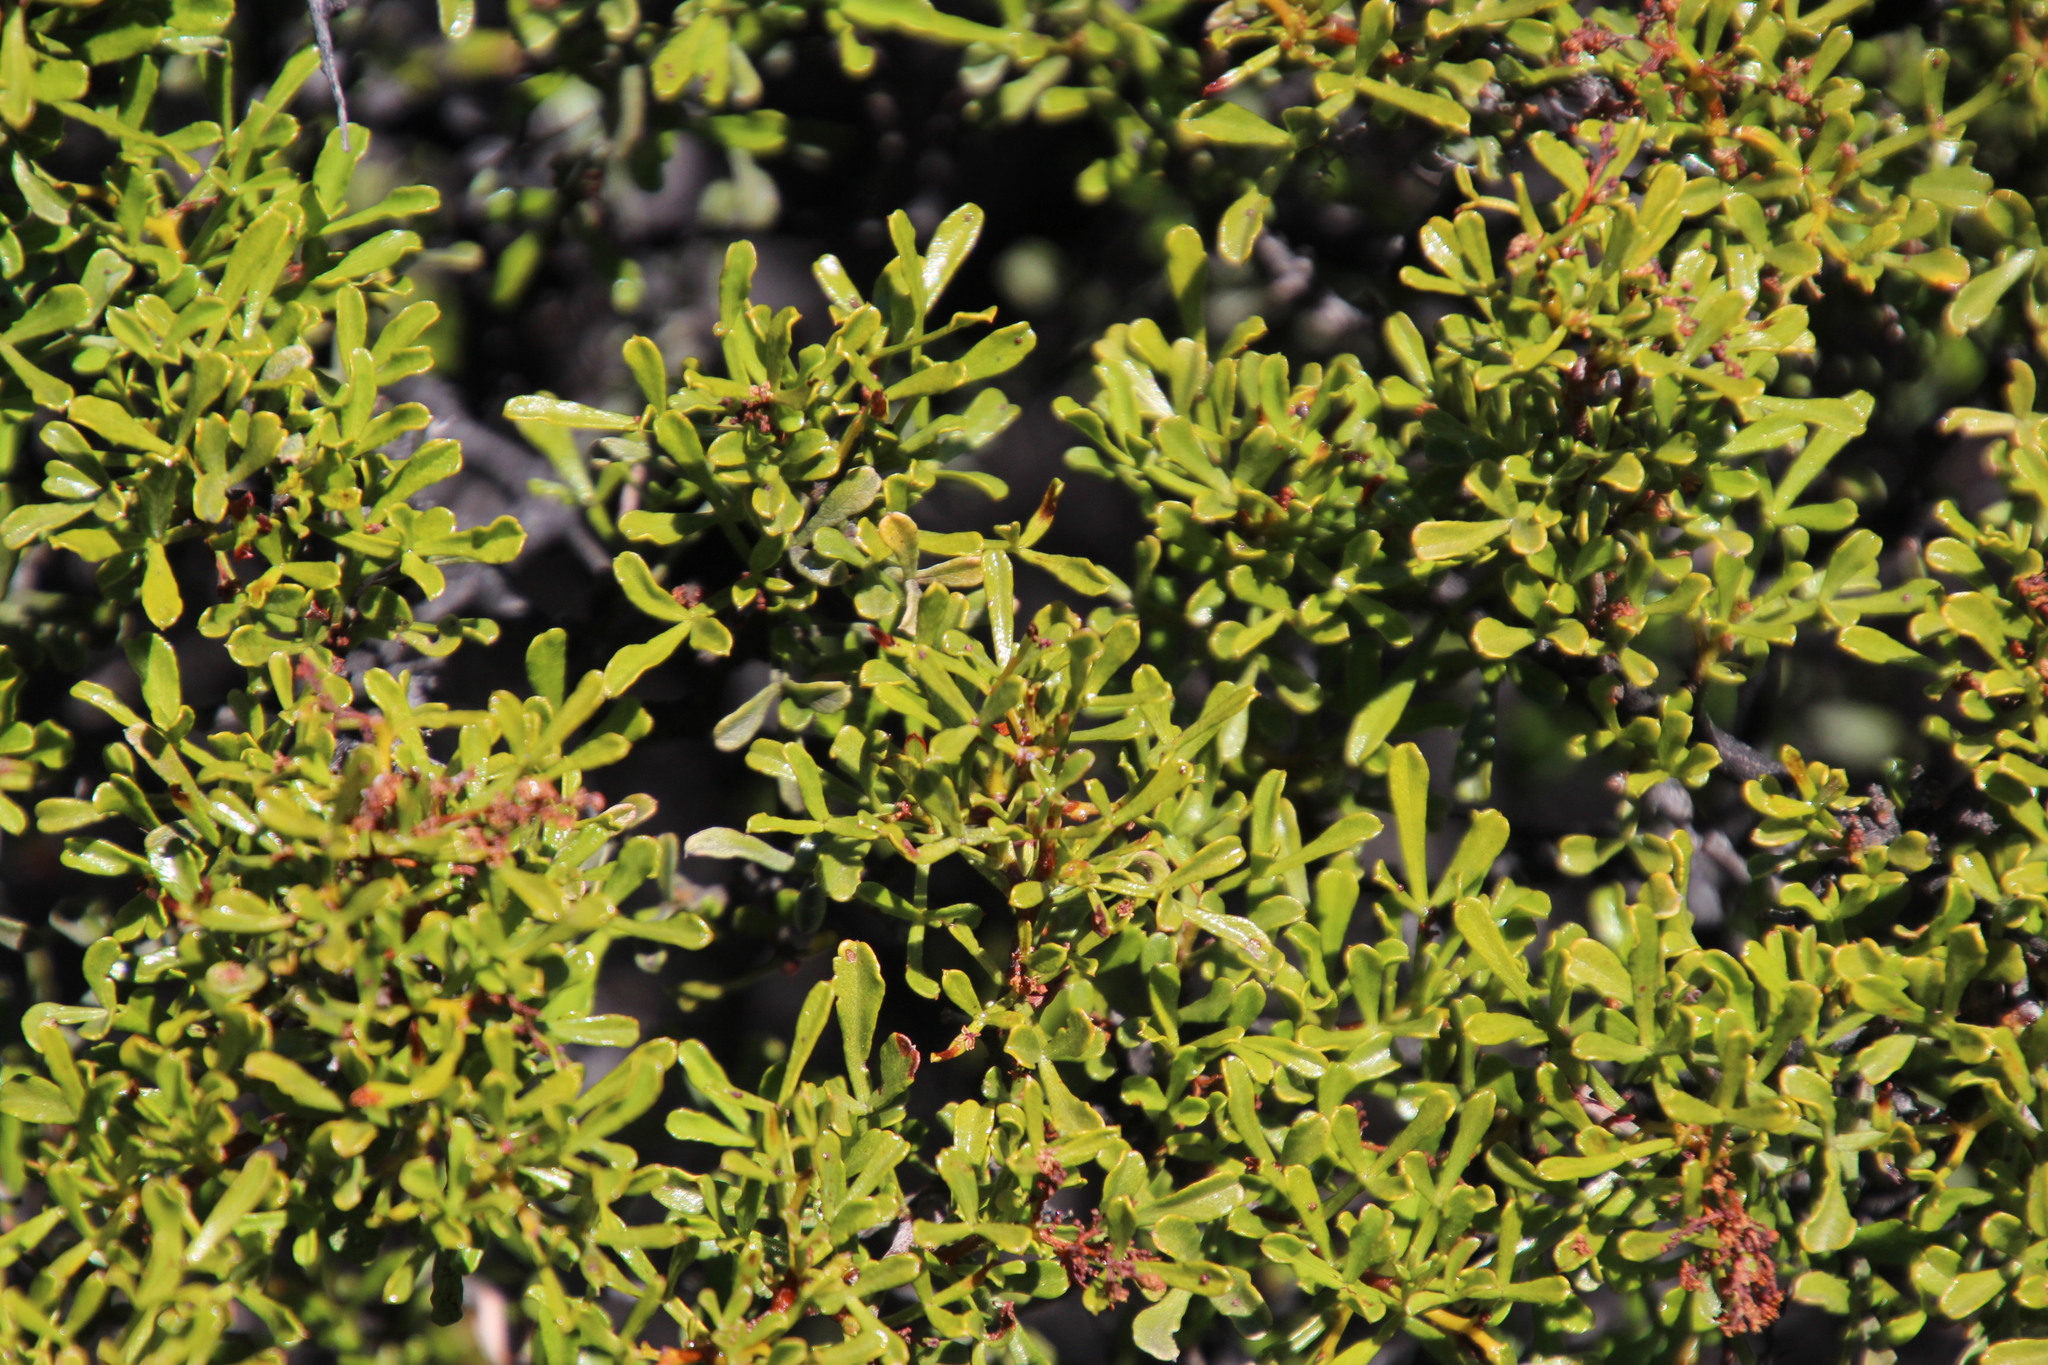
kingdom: Plantae
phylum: Tracheophyta
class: Magnoliopsida
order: Sapindales
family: Anacardiaceae
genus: Searsia
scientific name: Searsia undulata
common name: Namaqua kunibush
